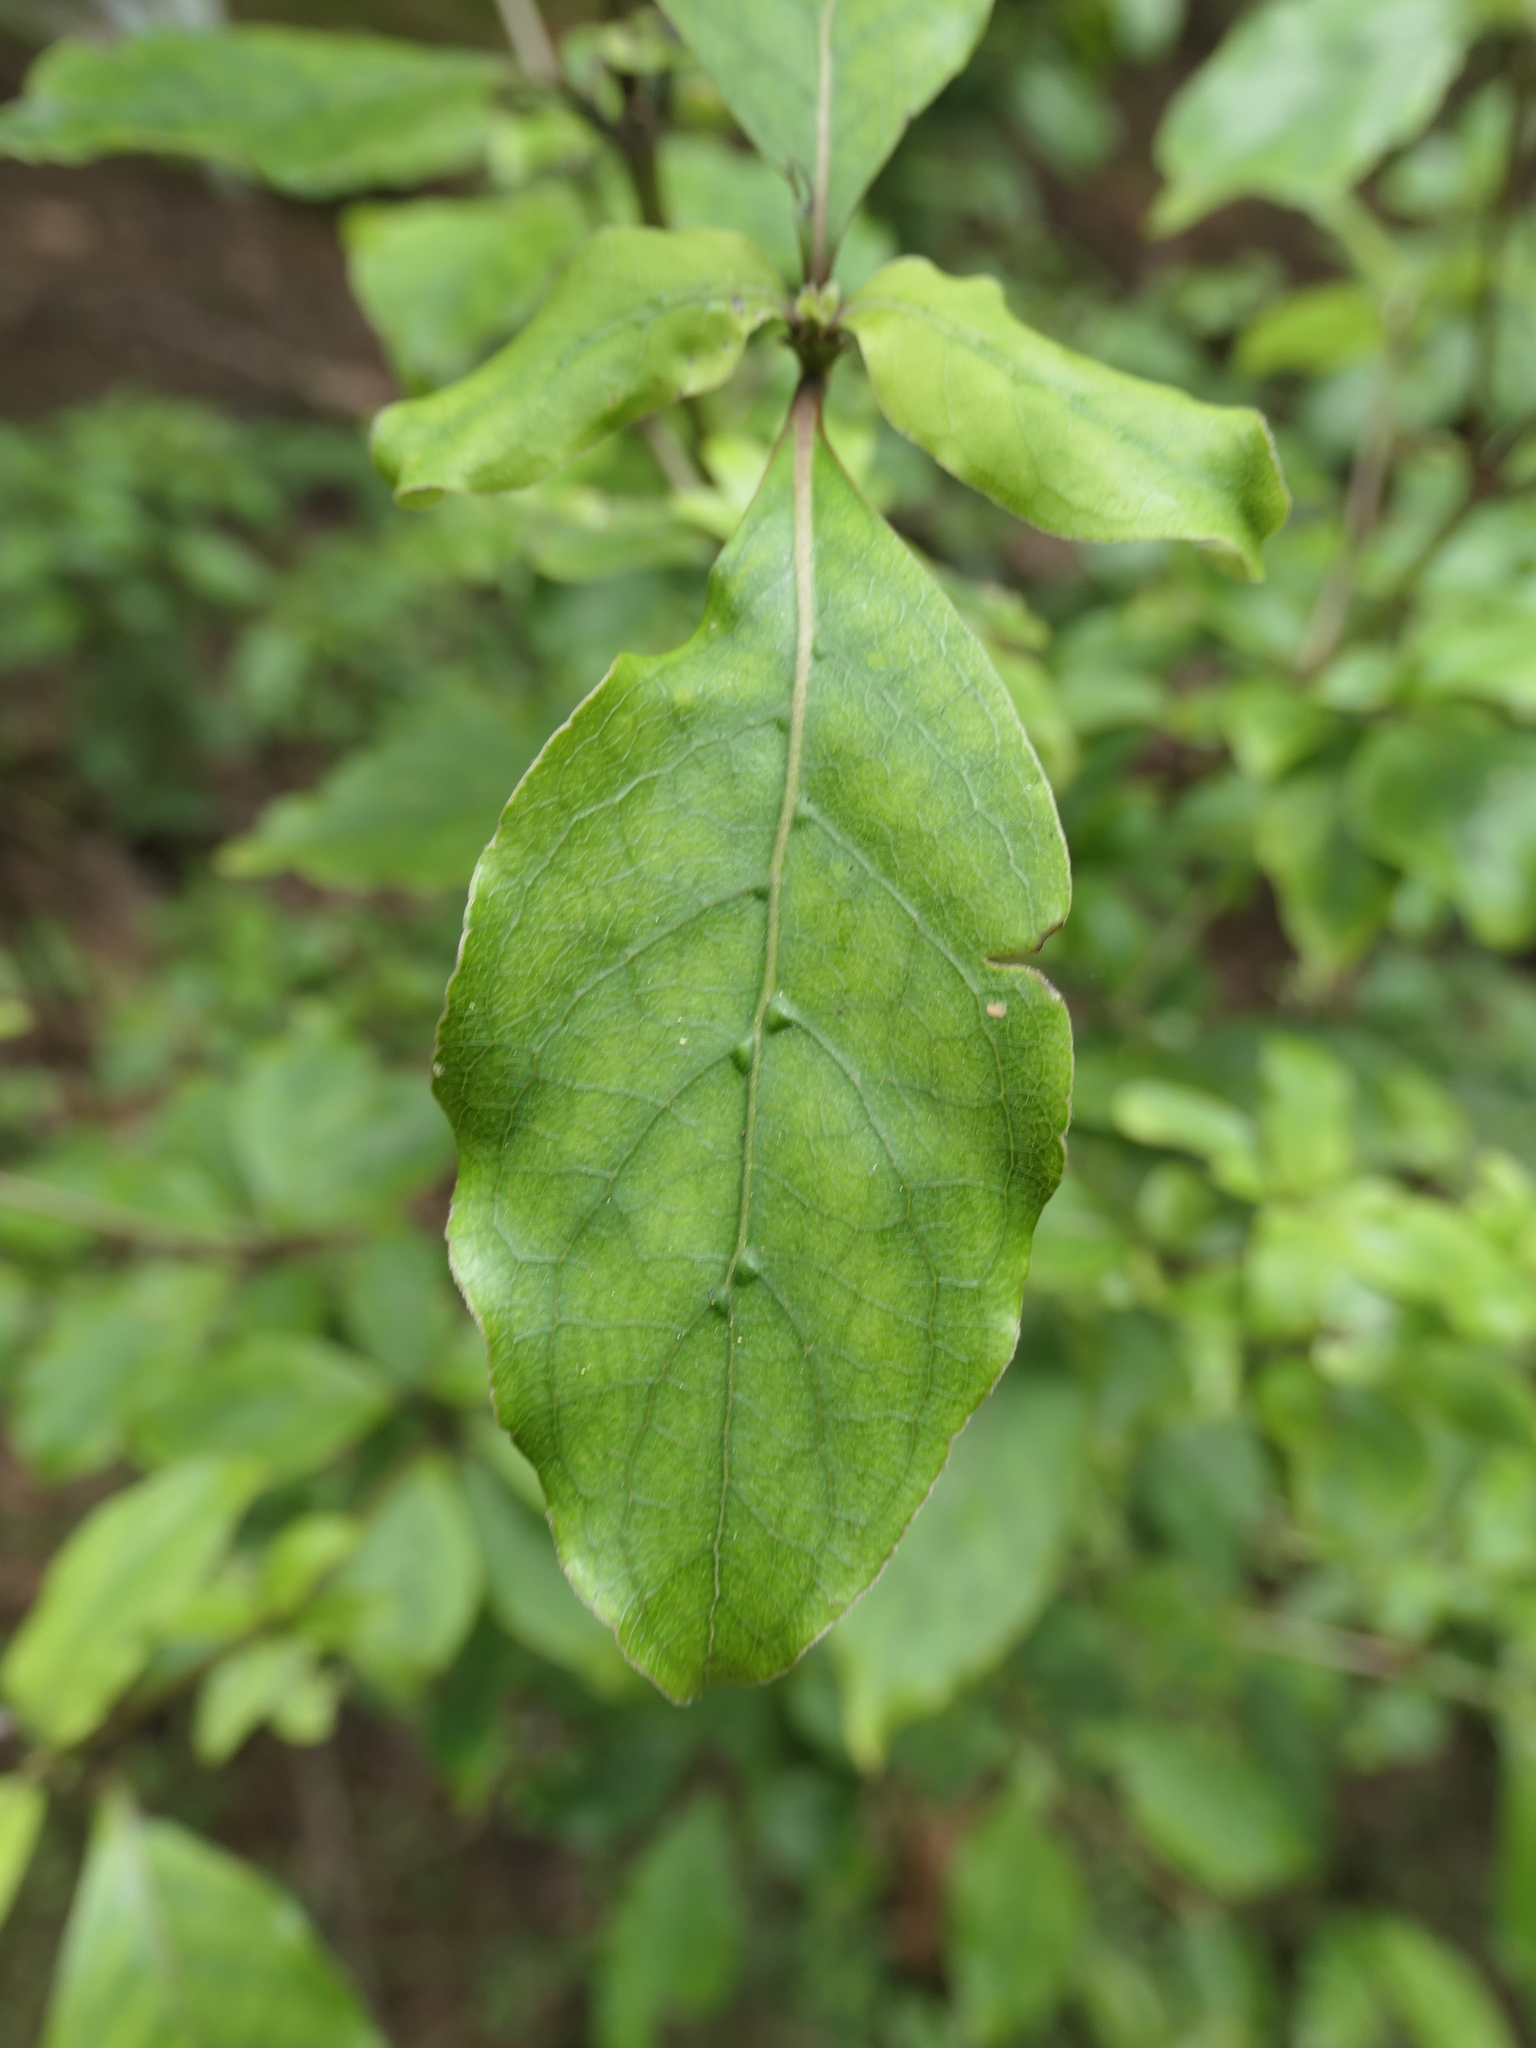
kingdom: Plantae
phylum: Tracheophyta
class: Magnoliopsida
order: Gentianales
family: Rubiaceae
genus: Coprosma
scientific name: Coprosma autumnalis
